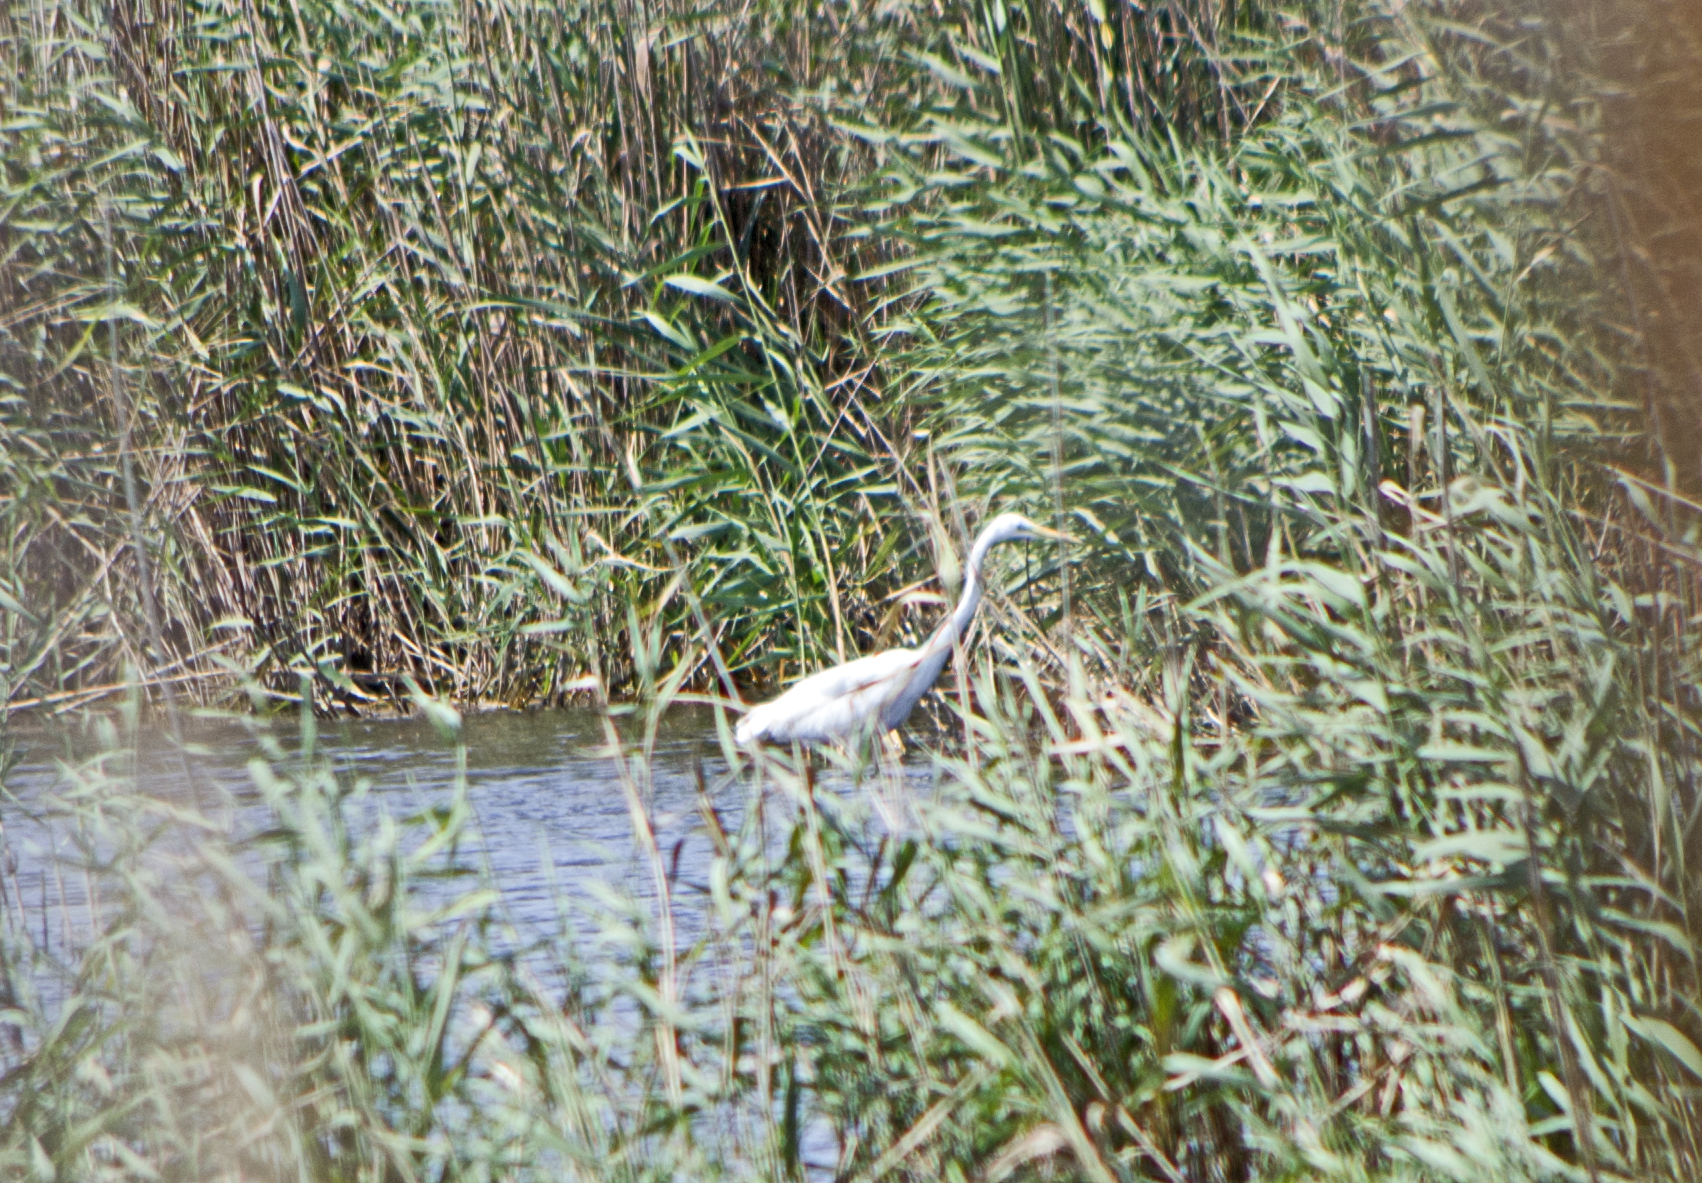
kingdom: Animalia
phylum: Chordata
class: Aves
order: Pelecaniformes
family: Ardeidae
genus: Ardea
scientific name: Ardea alba
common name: Great egret
